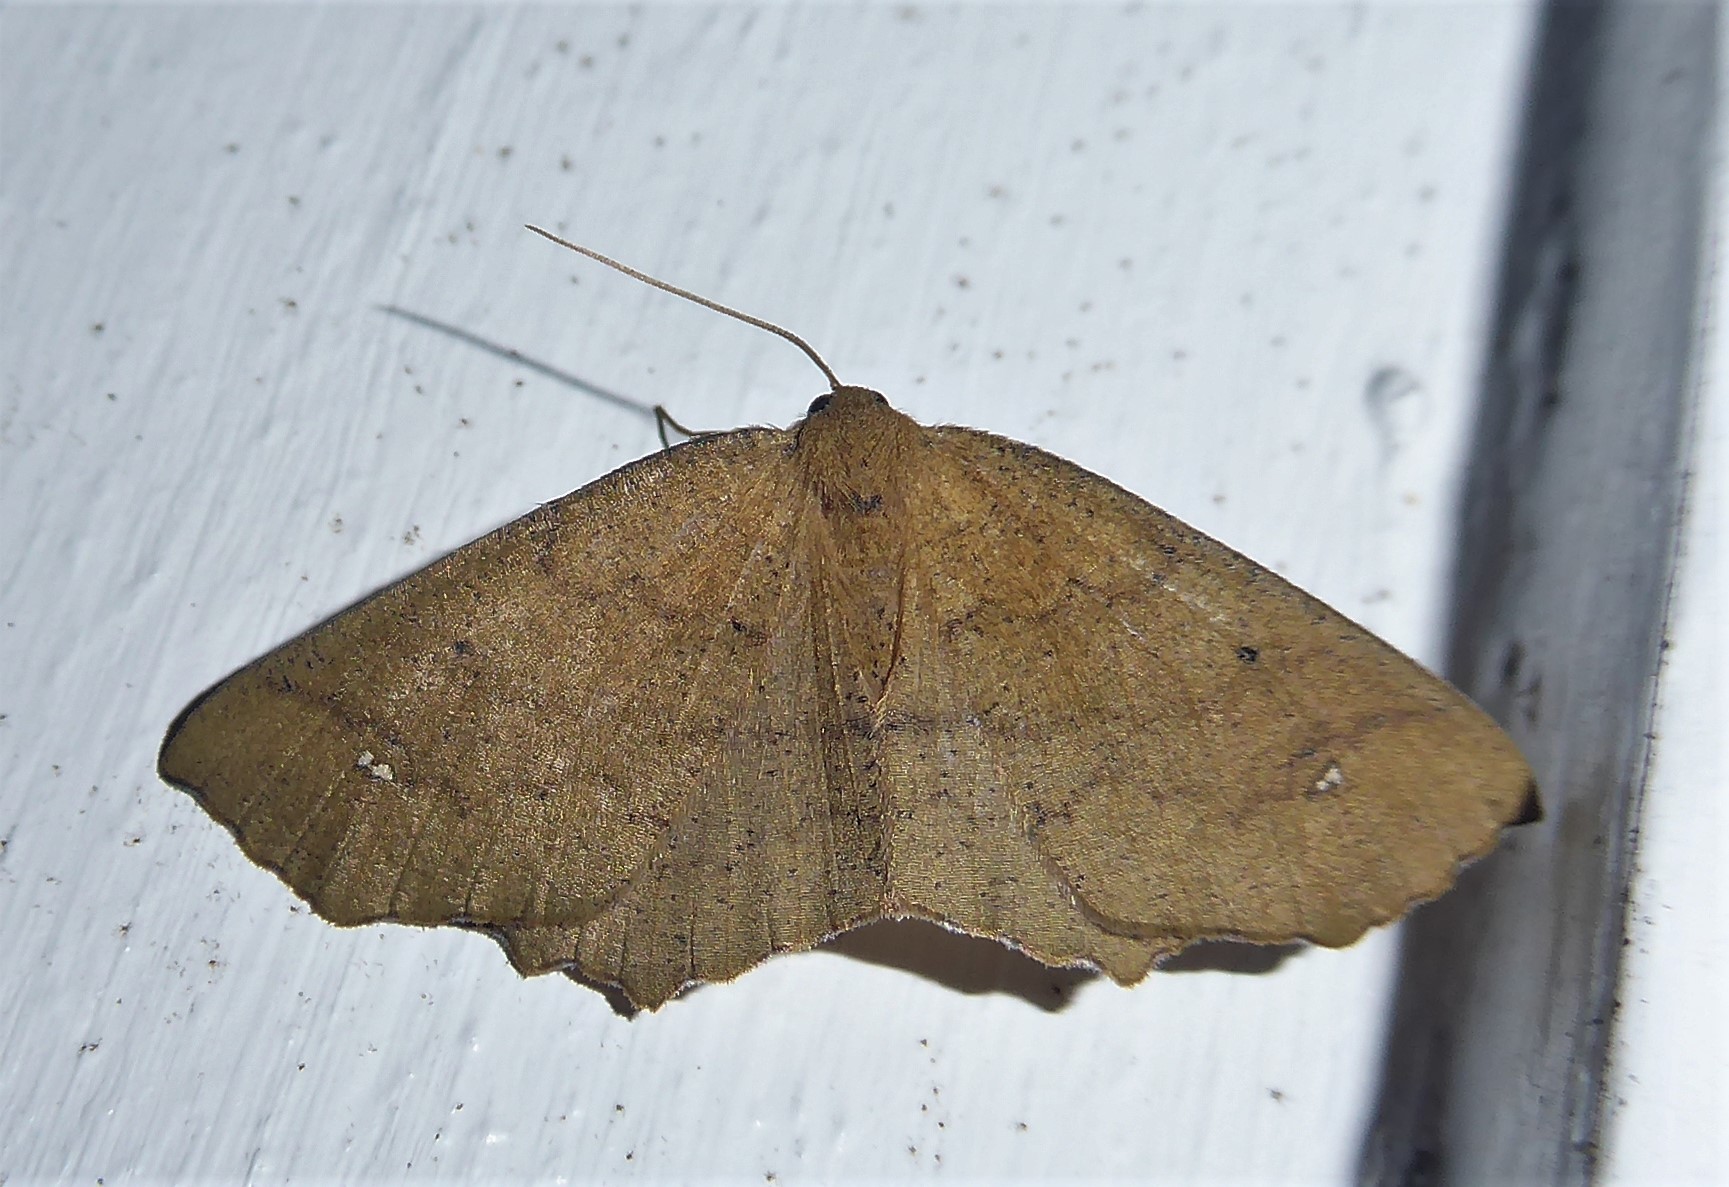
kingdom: Animalia
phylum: Arthropoda
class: Insecta
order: Lepidoptera
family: Geometridae
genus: Xyridacma
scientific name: Xyridacma ustaria
